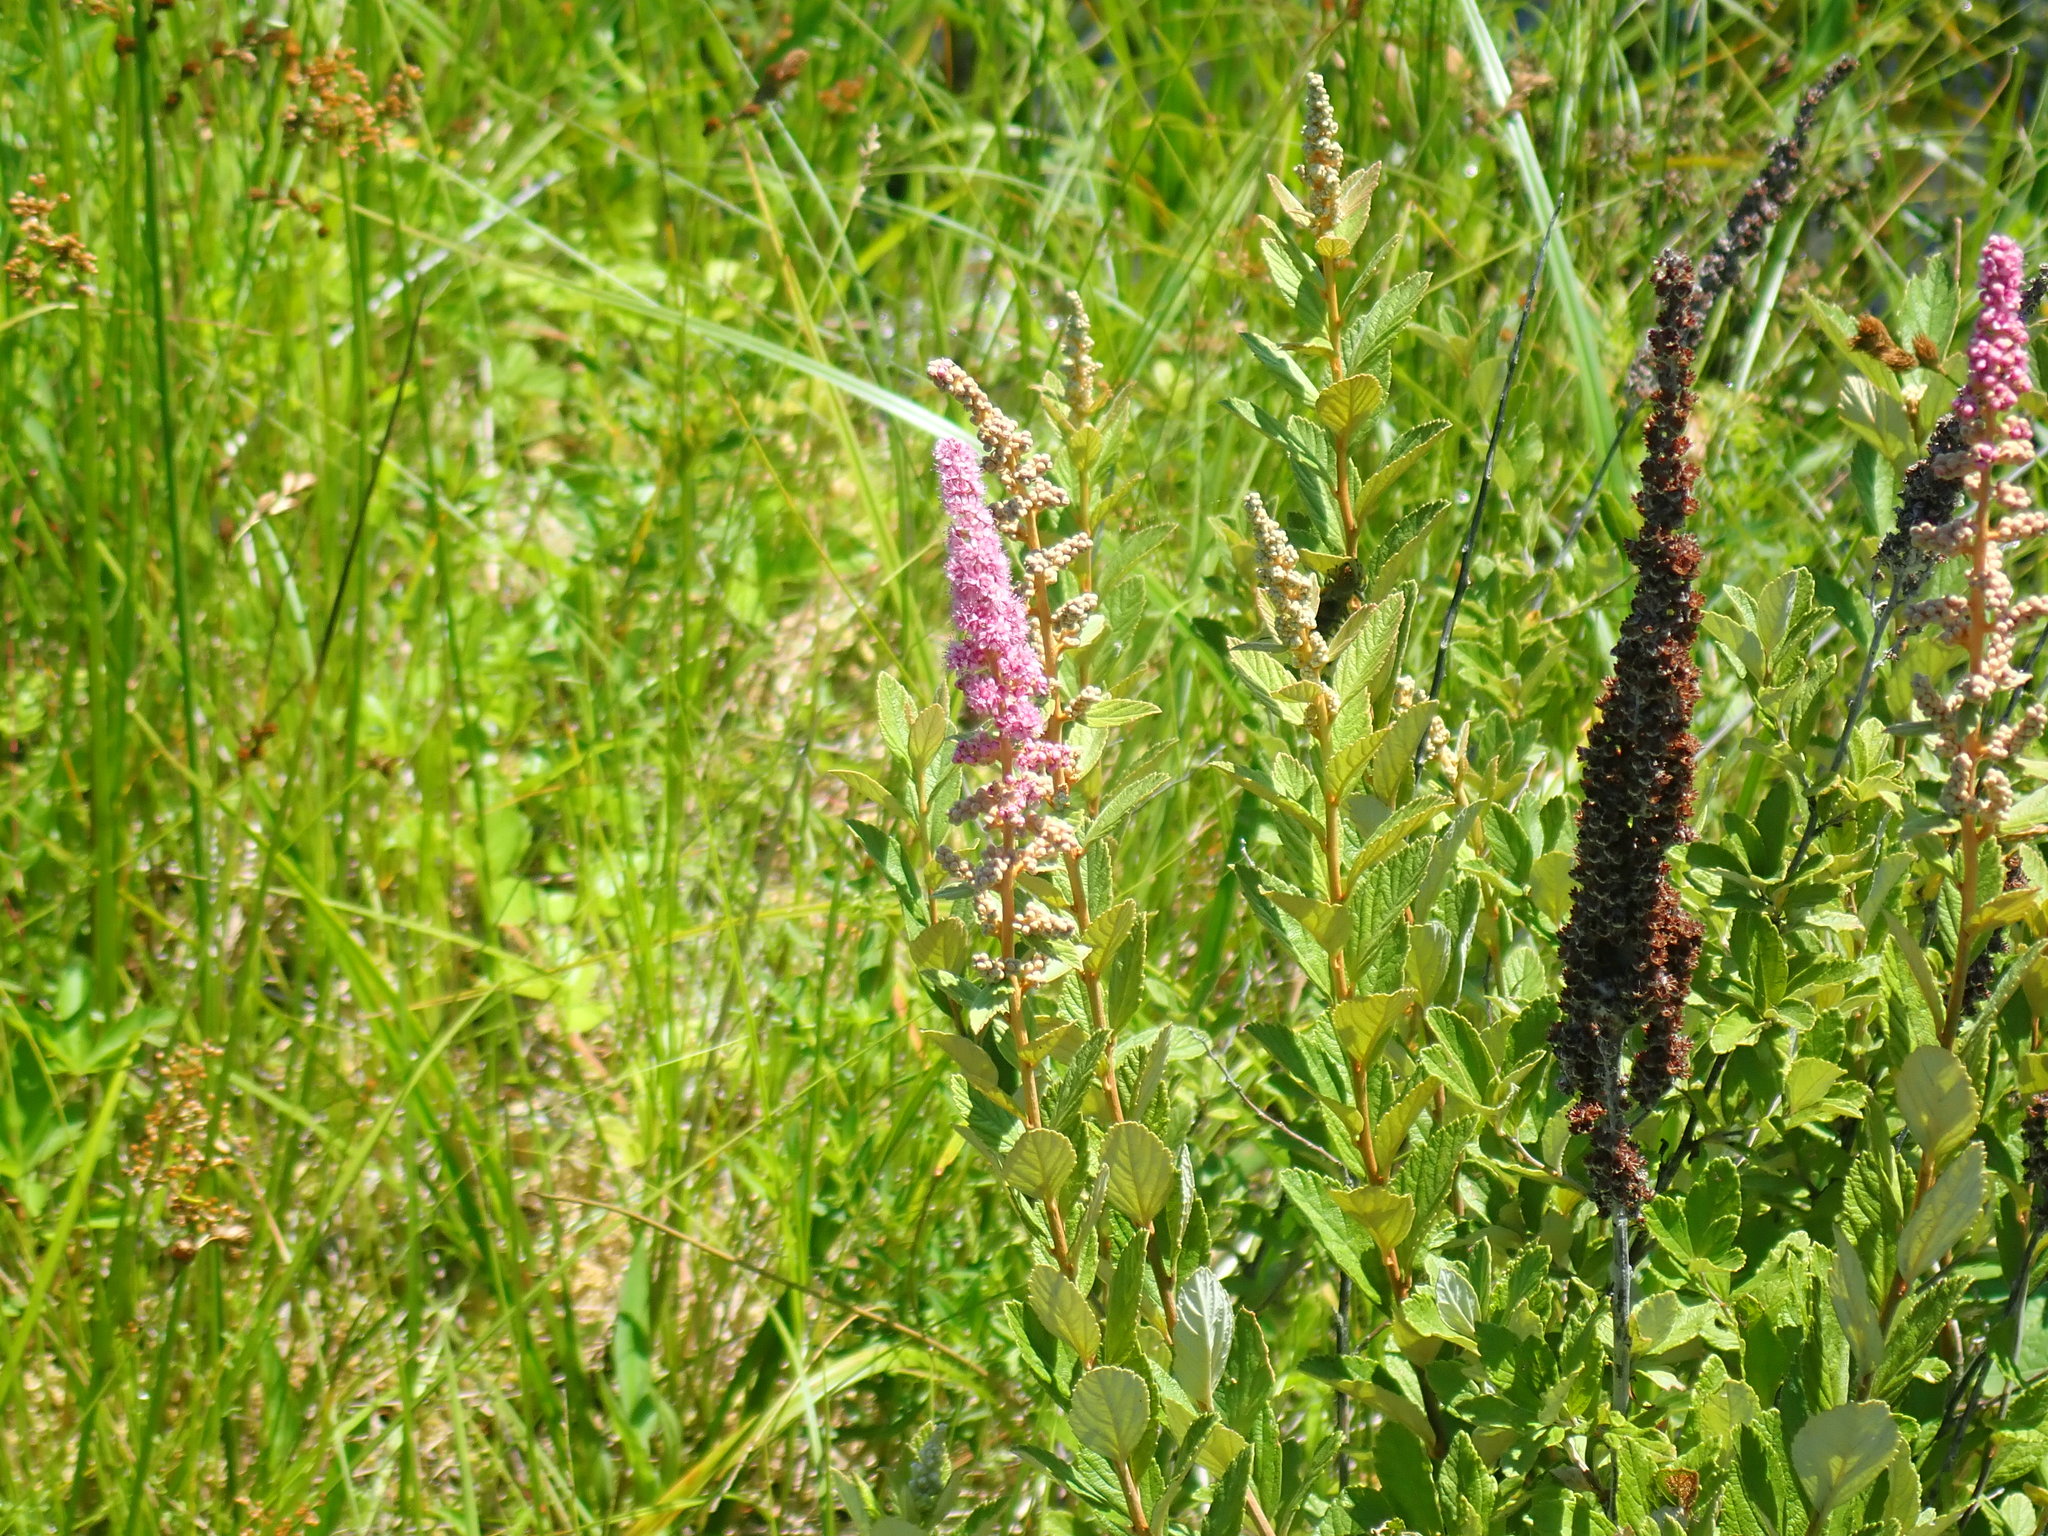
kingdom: Plantae
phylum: Tracheophyta
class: Magnoliopsida
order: Rosales
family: Rosaceae
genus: Spiraea
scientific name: Spiraea tomentosa
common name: Hardhack
